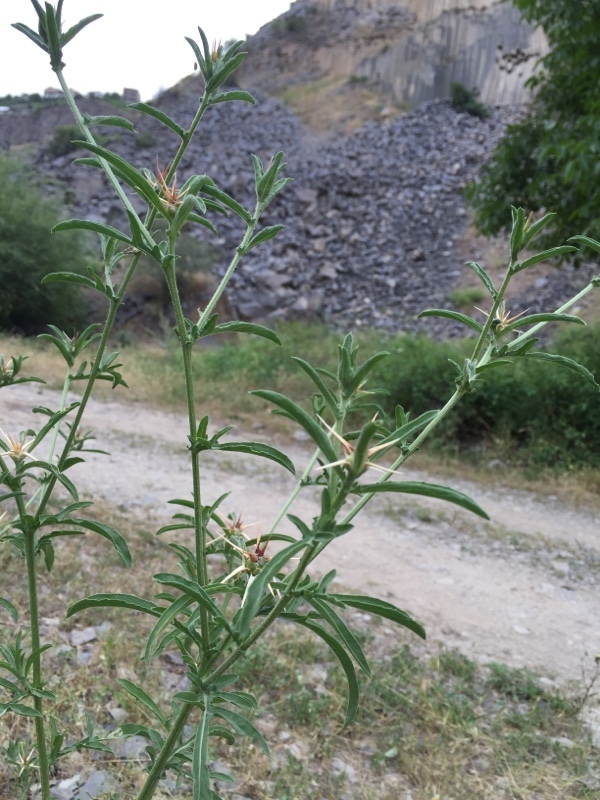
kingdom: Plantae
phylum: Tracheophyta
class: Magnoliopsida
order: Asterales
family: Asteraceae
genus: Centaurea
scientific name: Centaurea iberica
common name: Iberian knapweed
